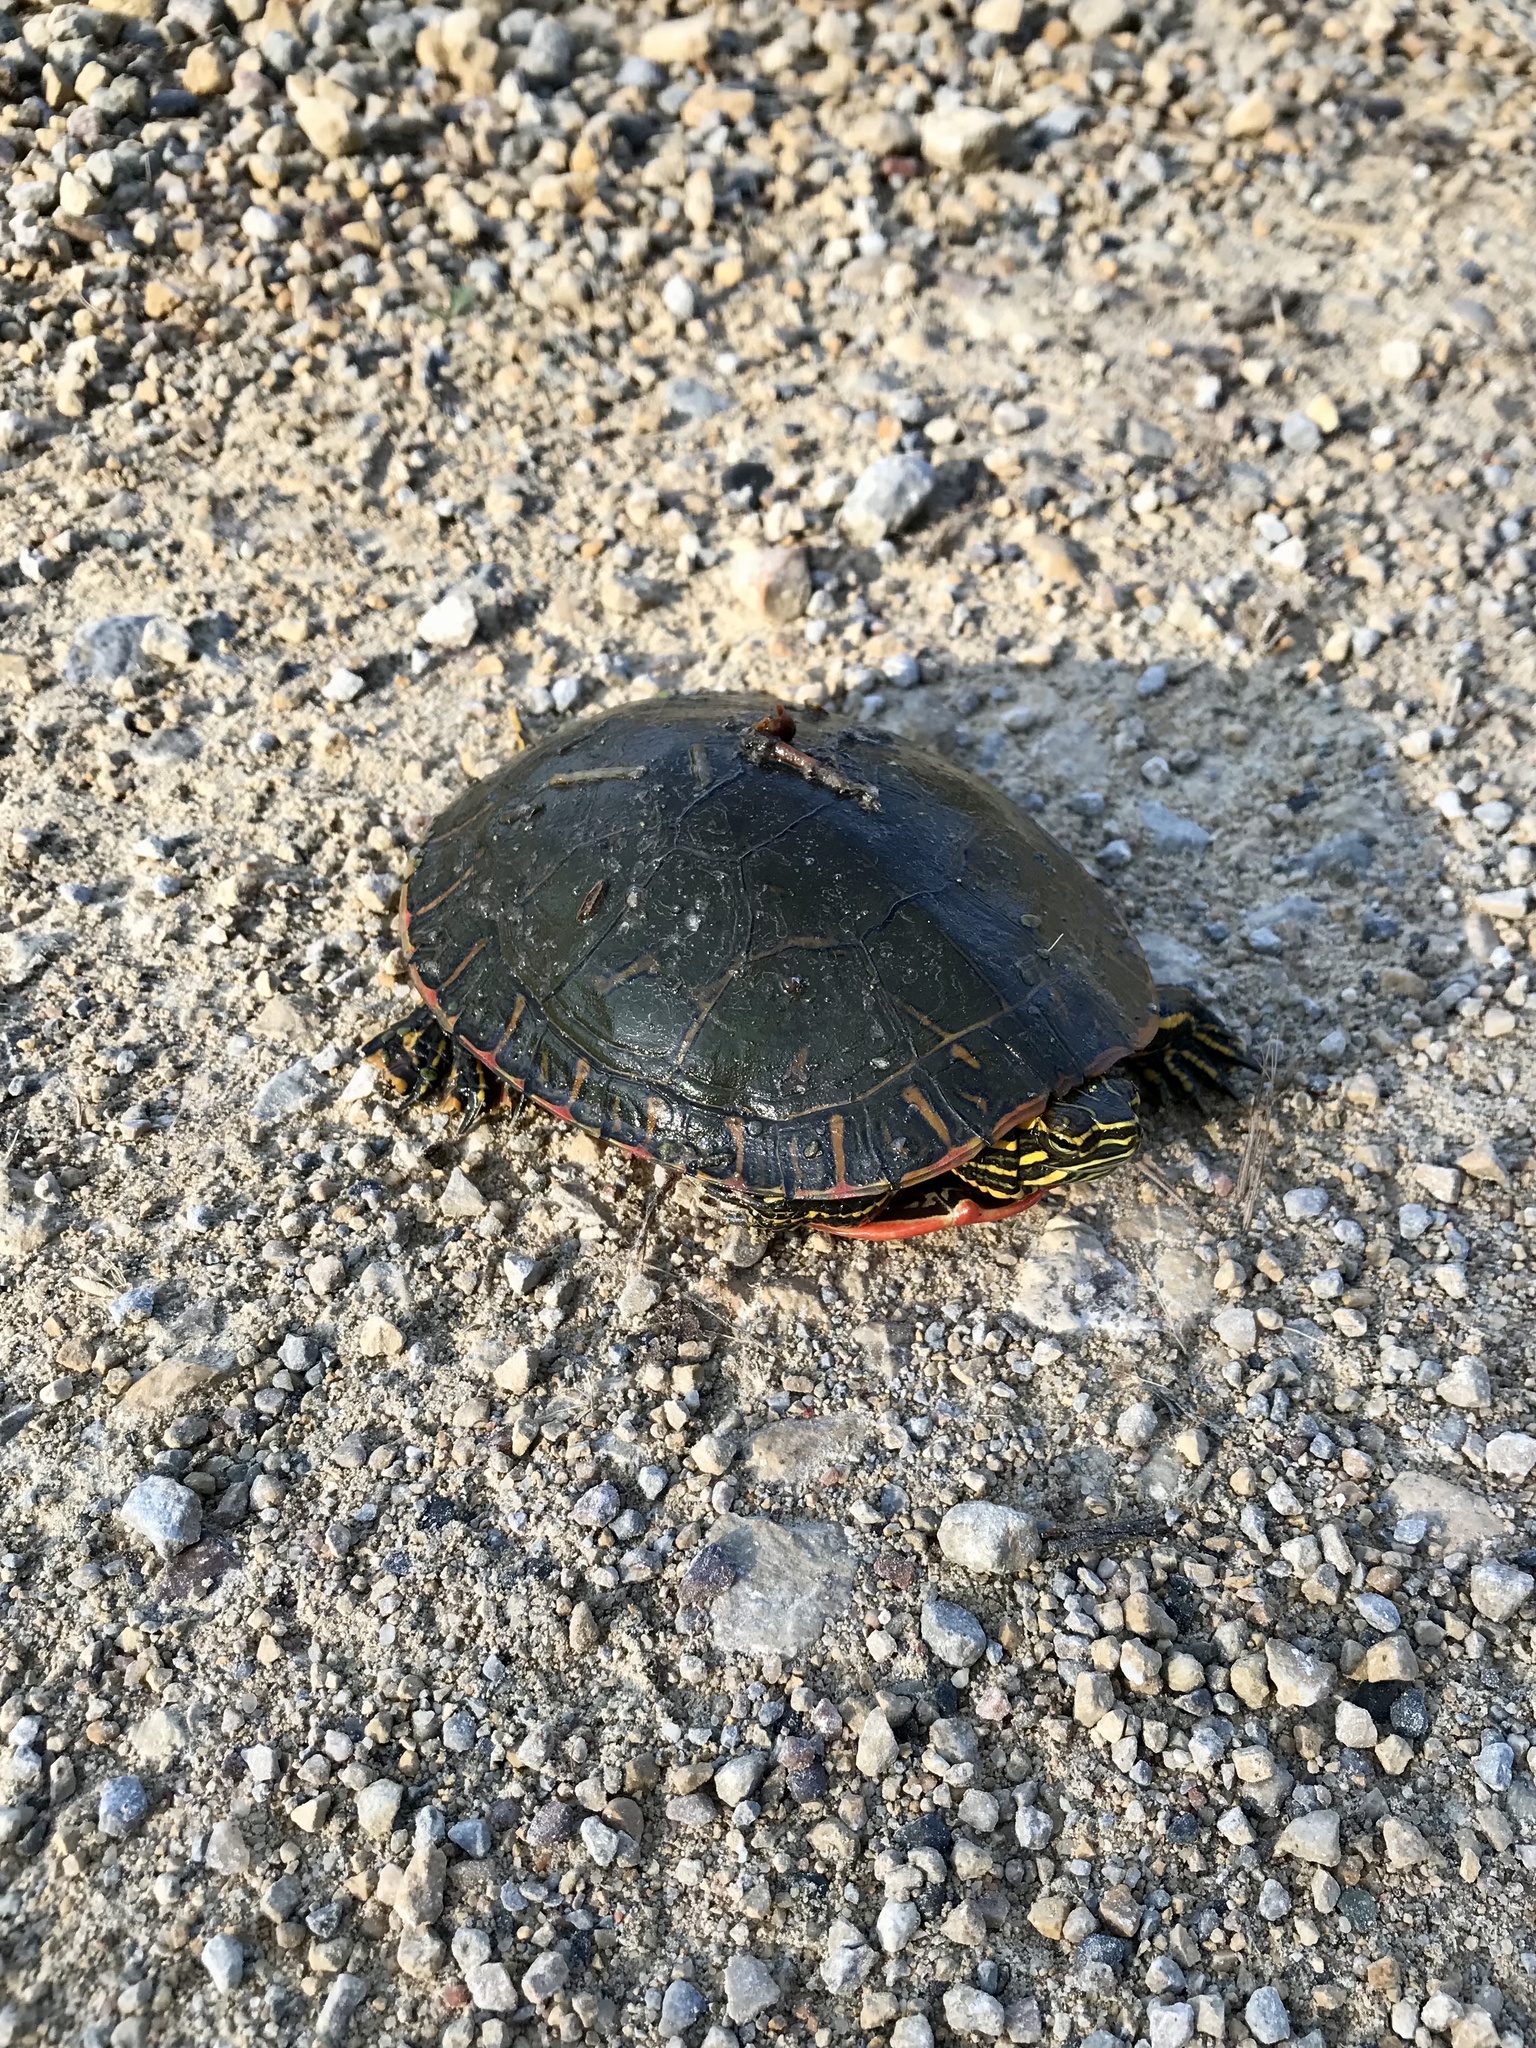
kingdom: Animalia
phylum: Chordata
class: Testudines
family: Emydidae
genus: Chrysemys
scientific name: Chrysemys picta
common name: Painted turtle
